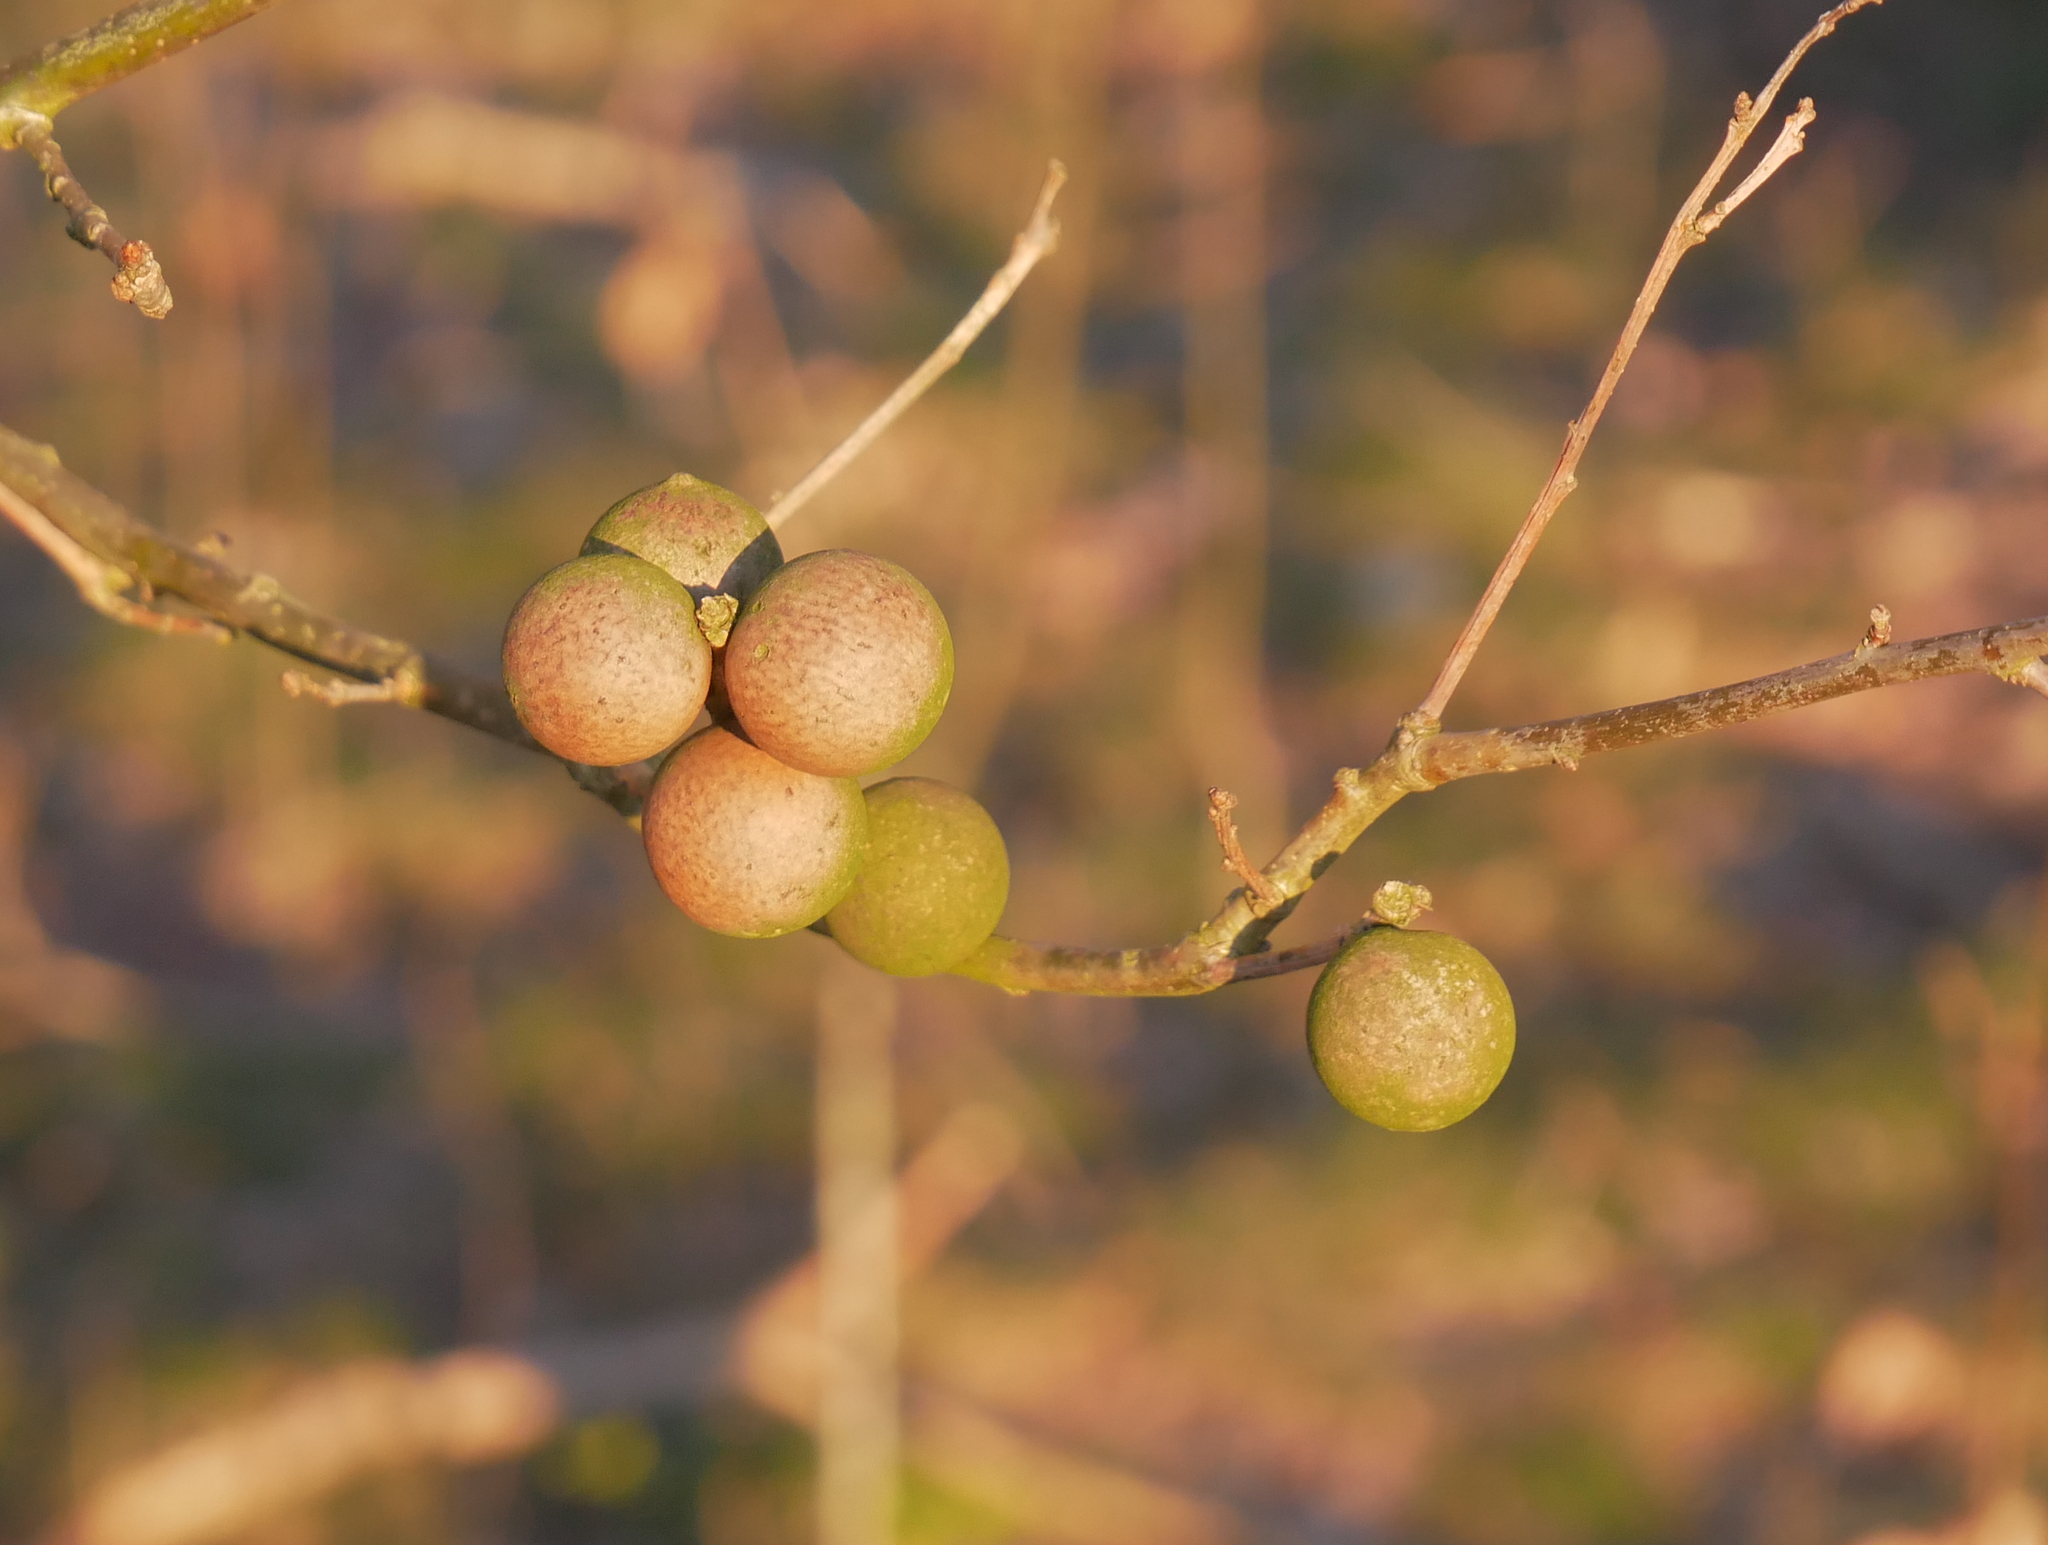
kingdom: Animalia
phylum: Arthropoda
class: Insecta
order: Hymenoptera
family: Cynipidae
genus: Andricus
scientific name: Andricus kollari
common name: Marble gall
